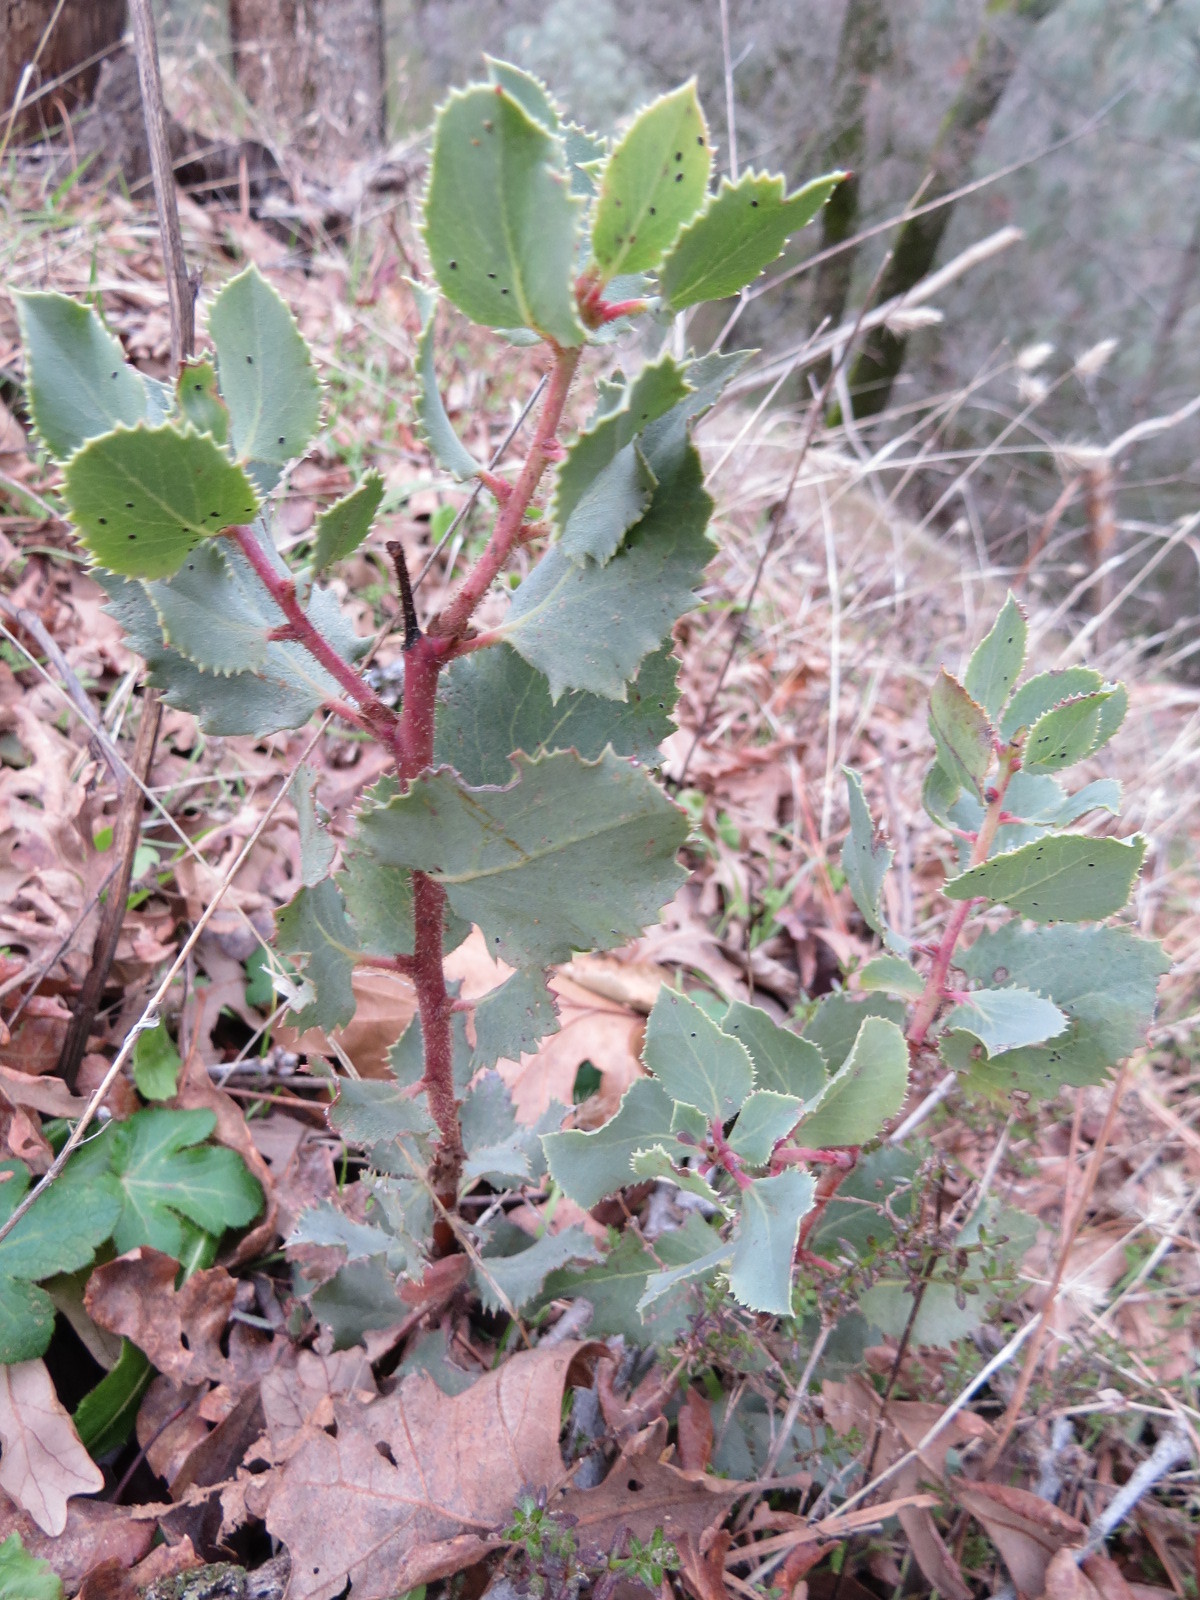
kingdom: Plantae
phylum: Tracheophyta
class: Magnoliopsida
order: Ericales
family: Ericaceae
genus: Arctostaphylos
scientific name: Arctostaphylos glauca
